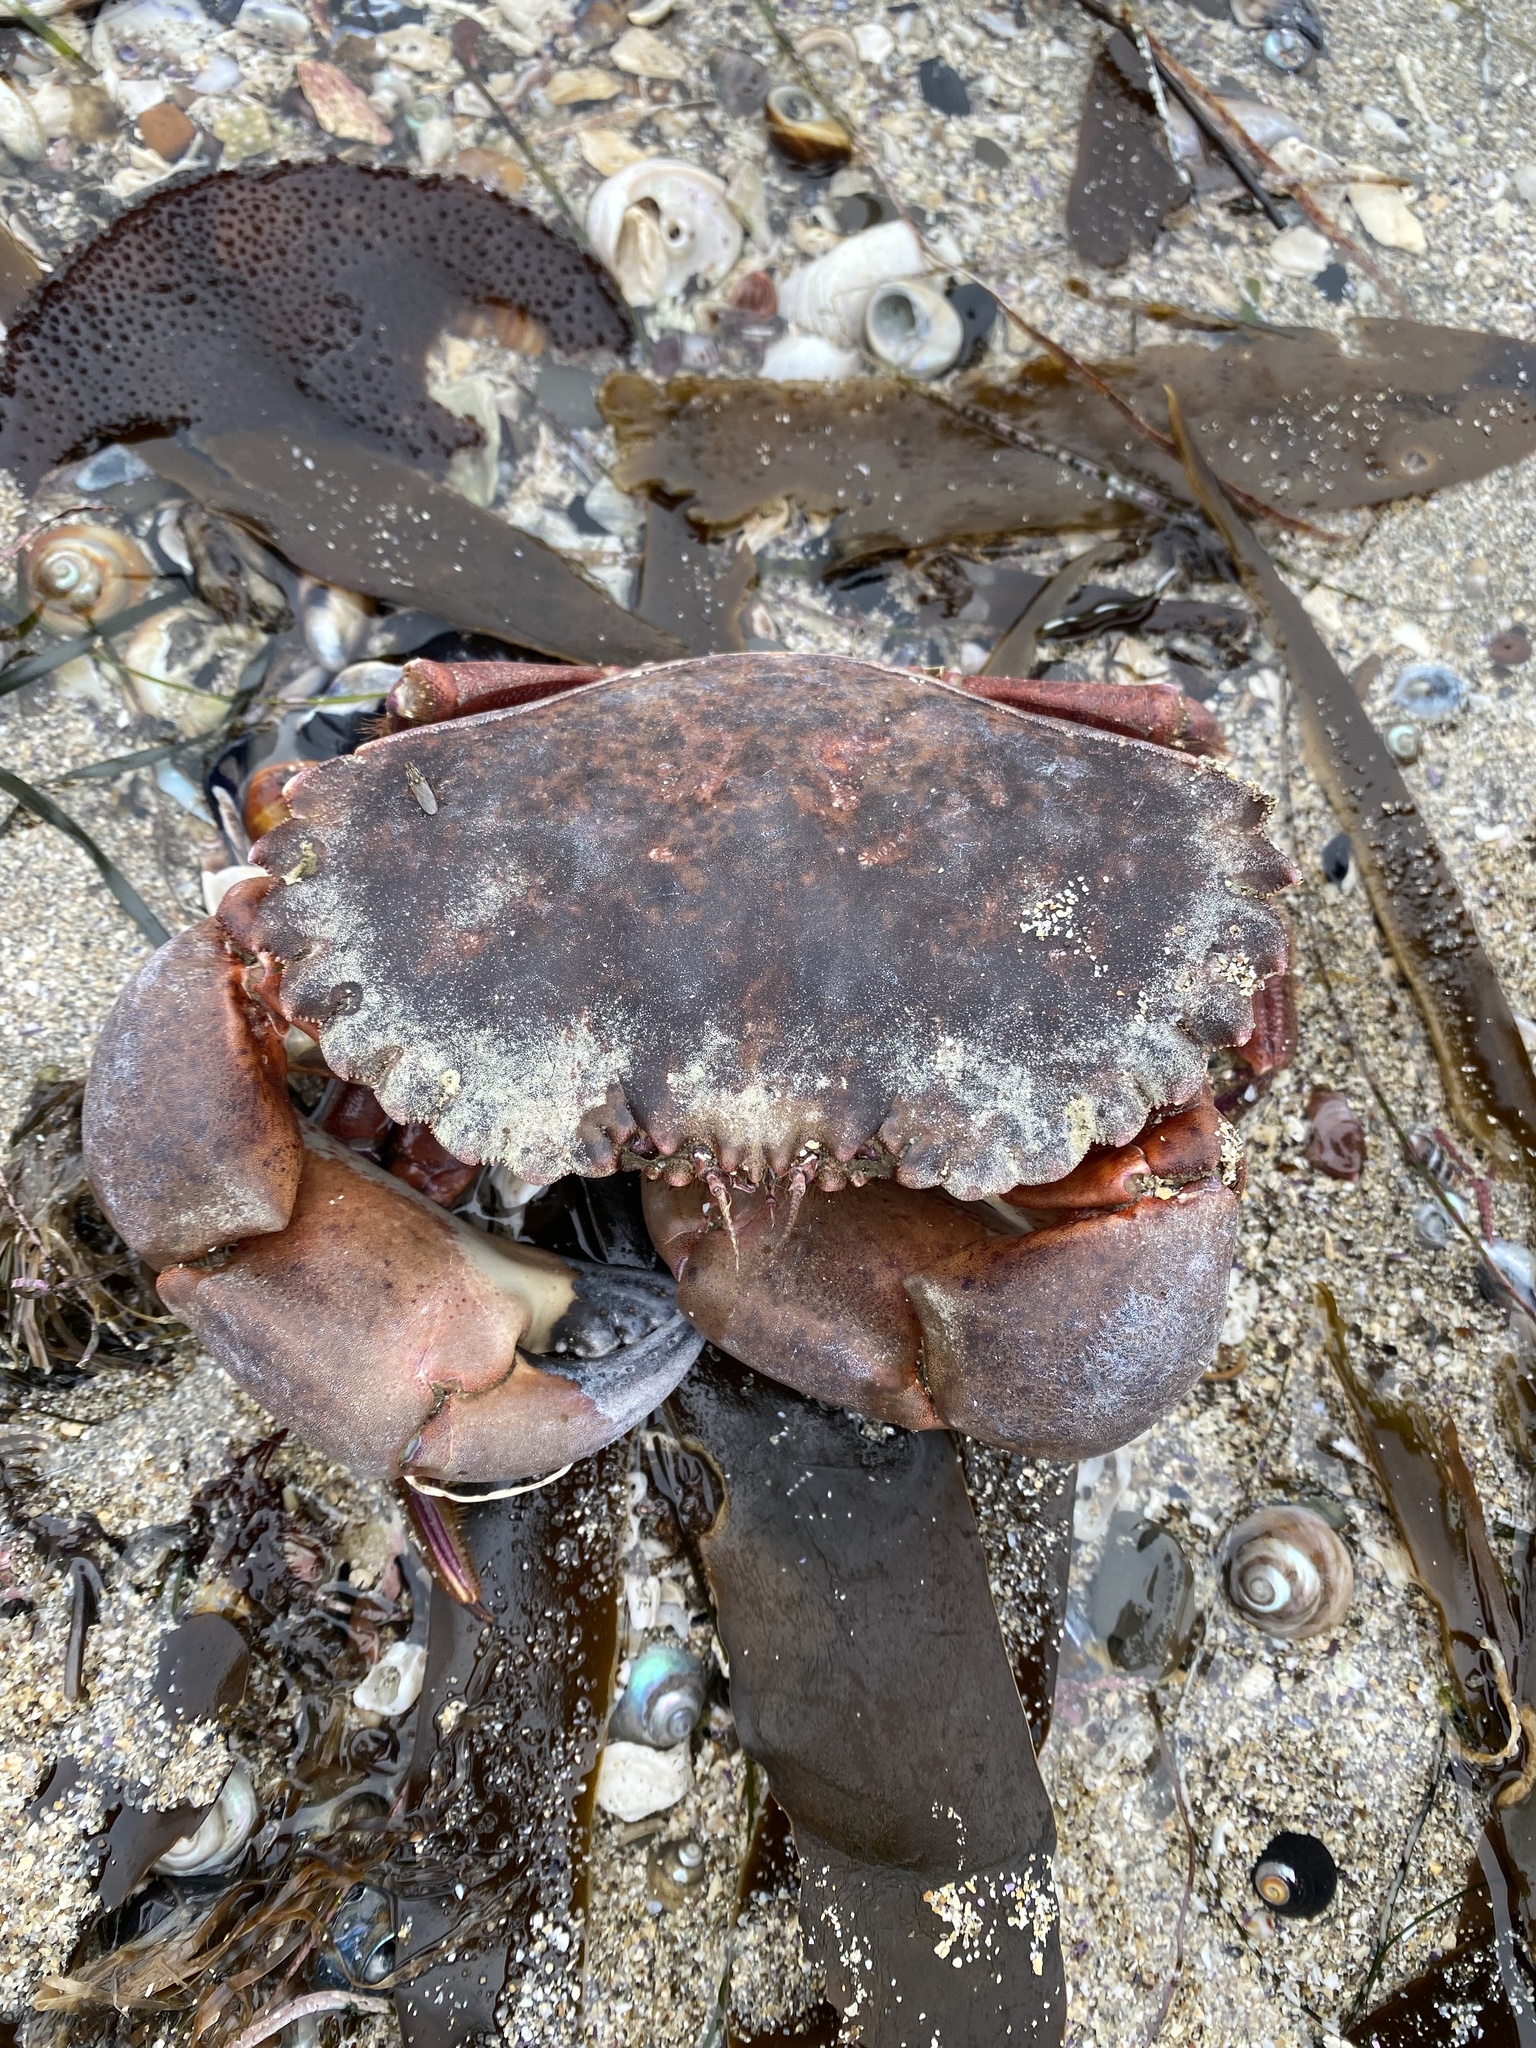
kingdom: Animalia
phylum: Arthropoda
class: Malacostraca
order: Decapoda
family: Cancridae
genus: Romaleon
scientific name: Romaleon antennarium
